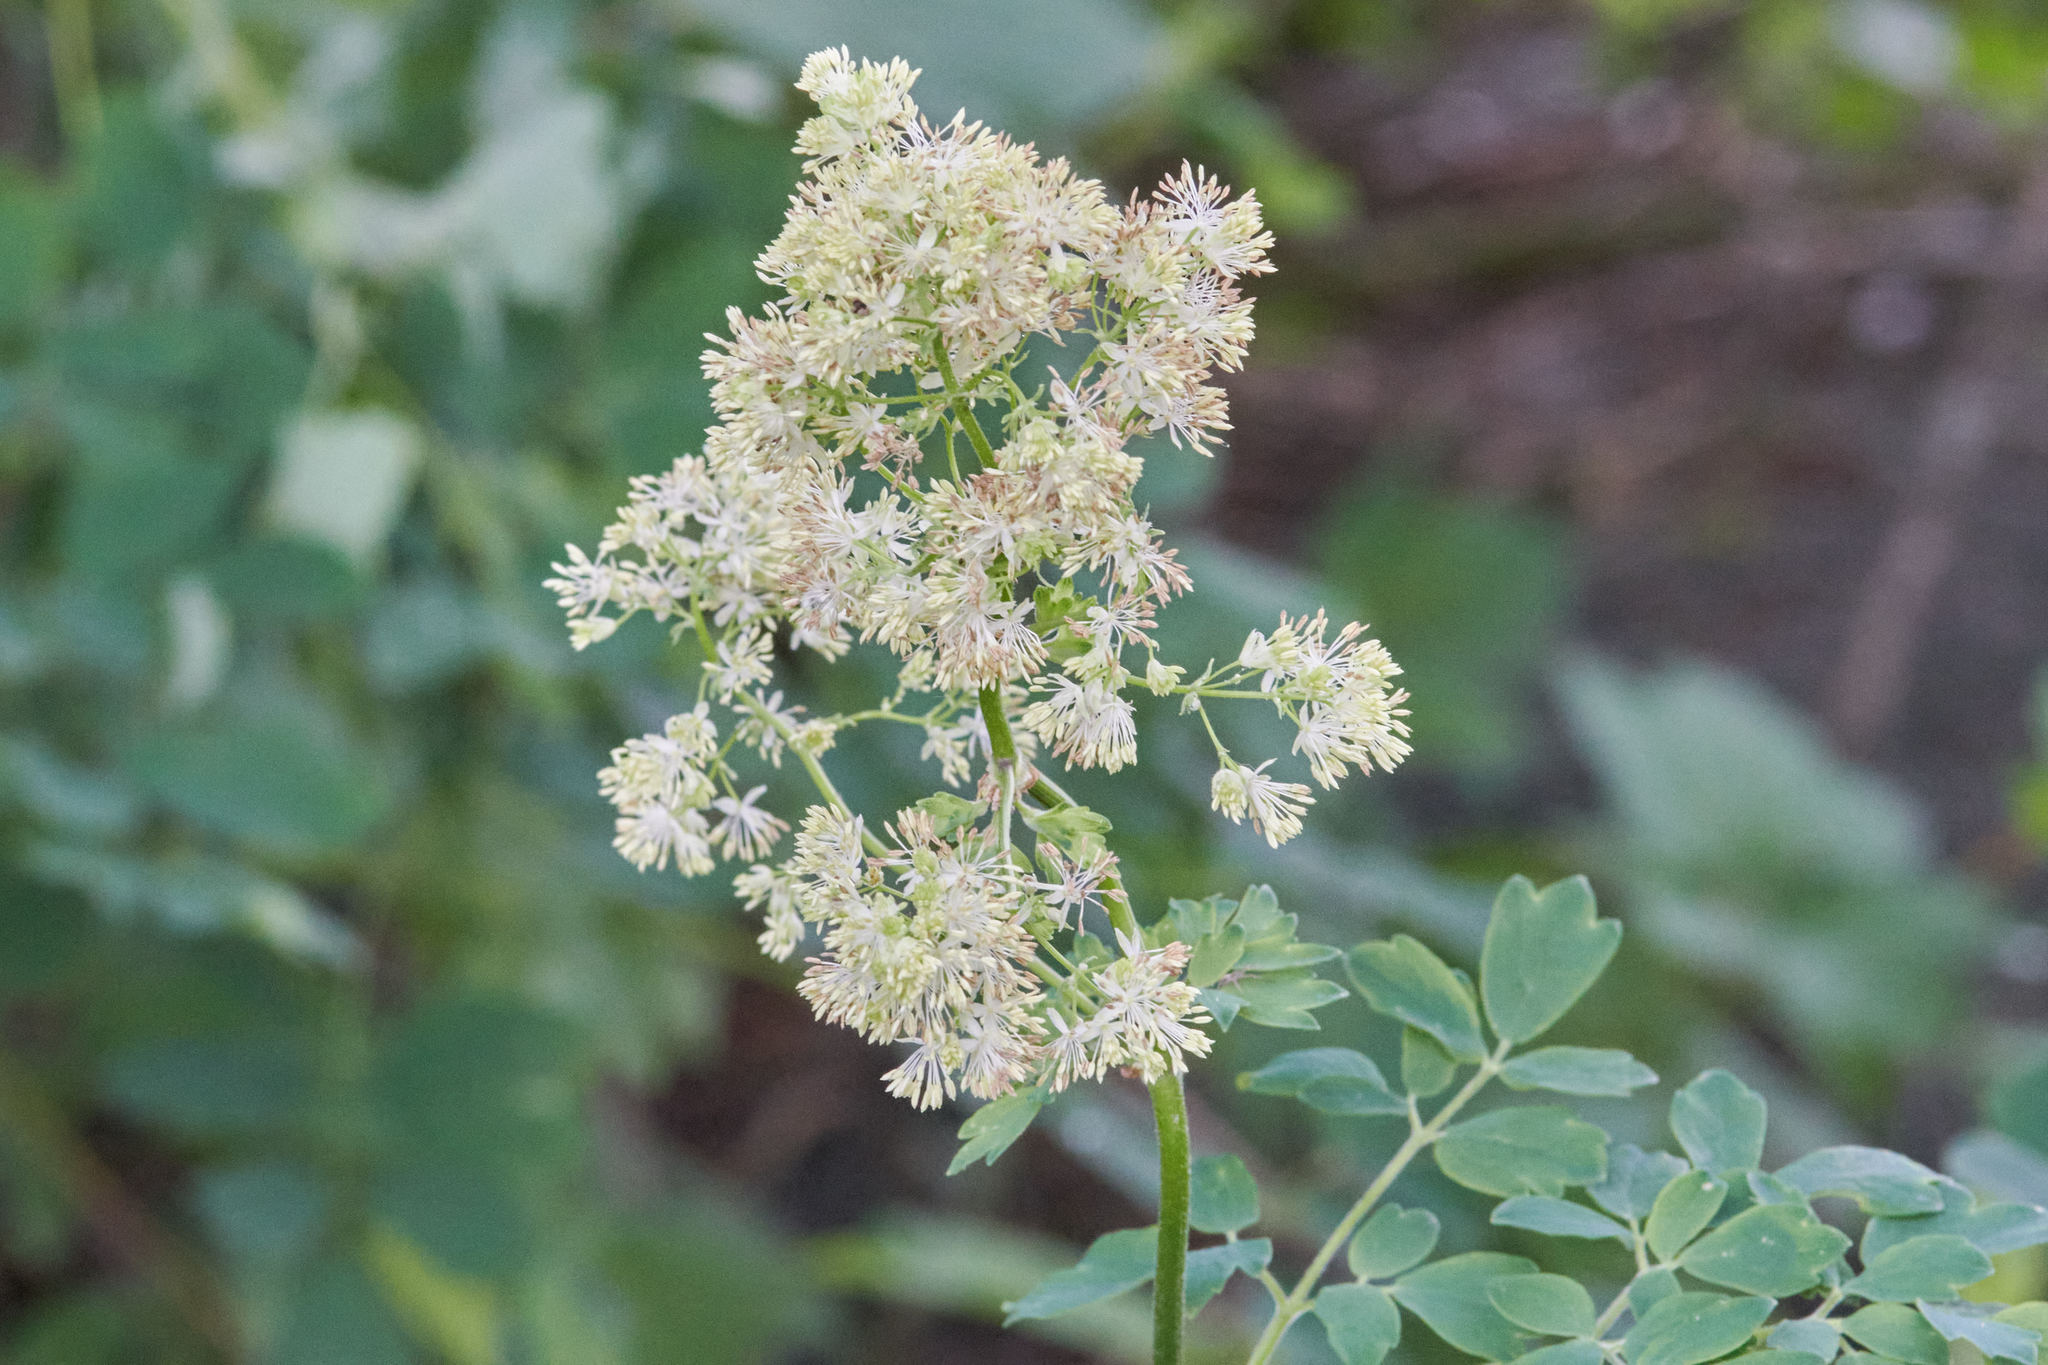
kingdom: Plantae
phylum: Tracheophyta
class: Magnoliopsida
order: Ranunculales
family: Ranunculaceae
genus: Thalictrum
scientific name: Thalictrum dasycarpum
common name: Purple meadow-rue
